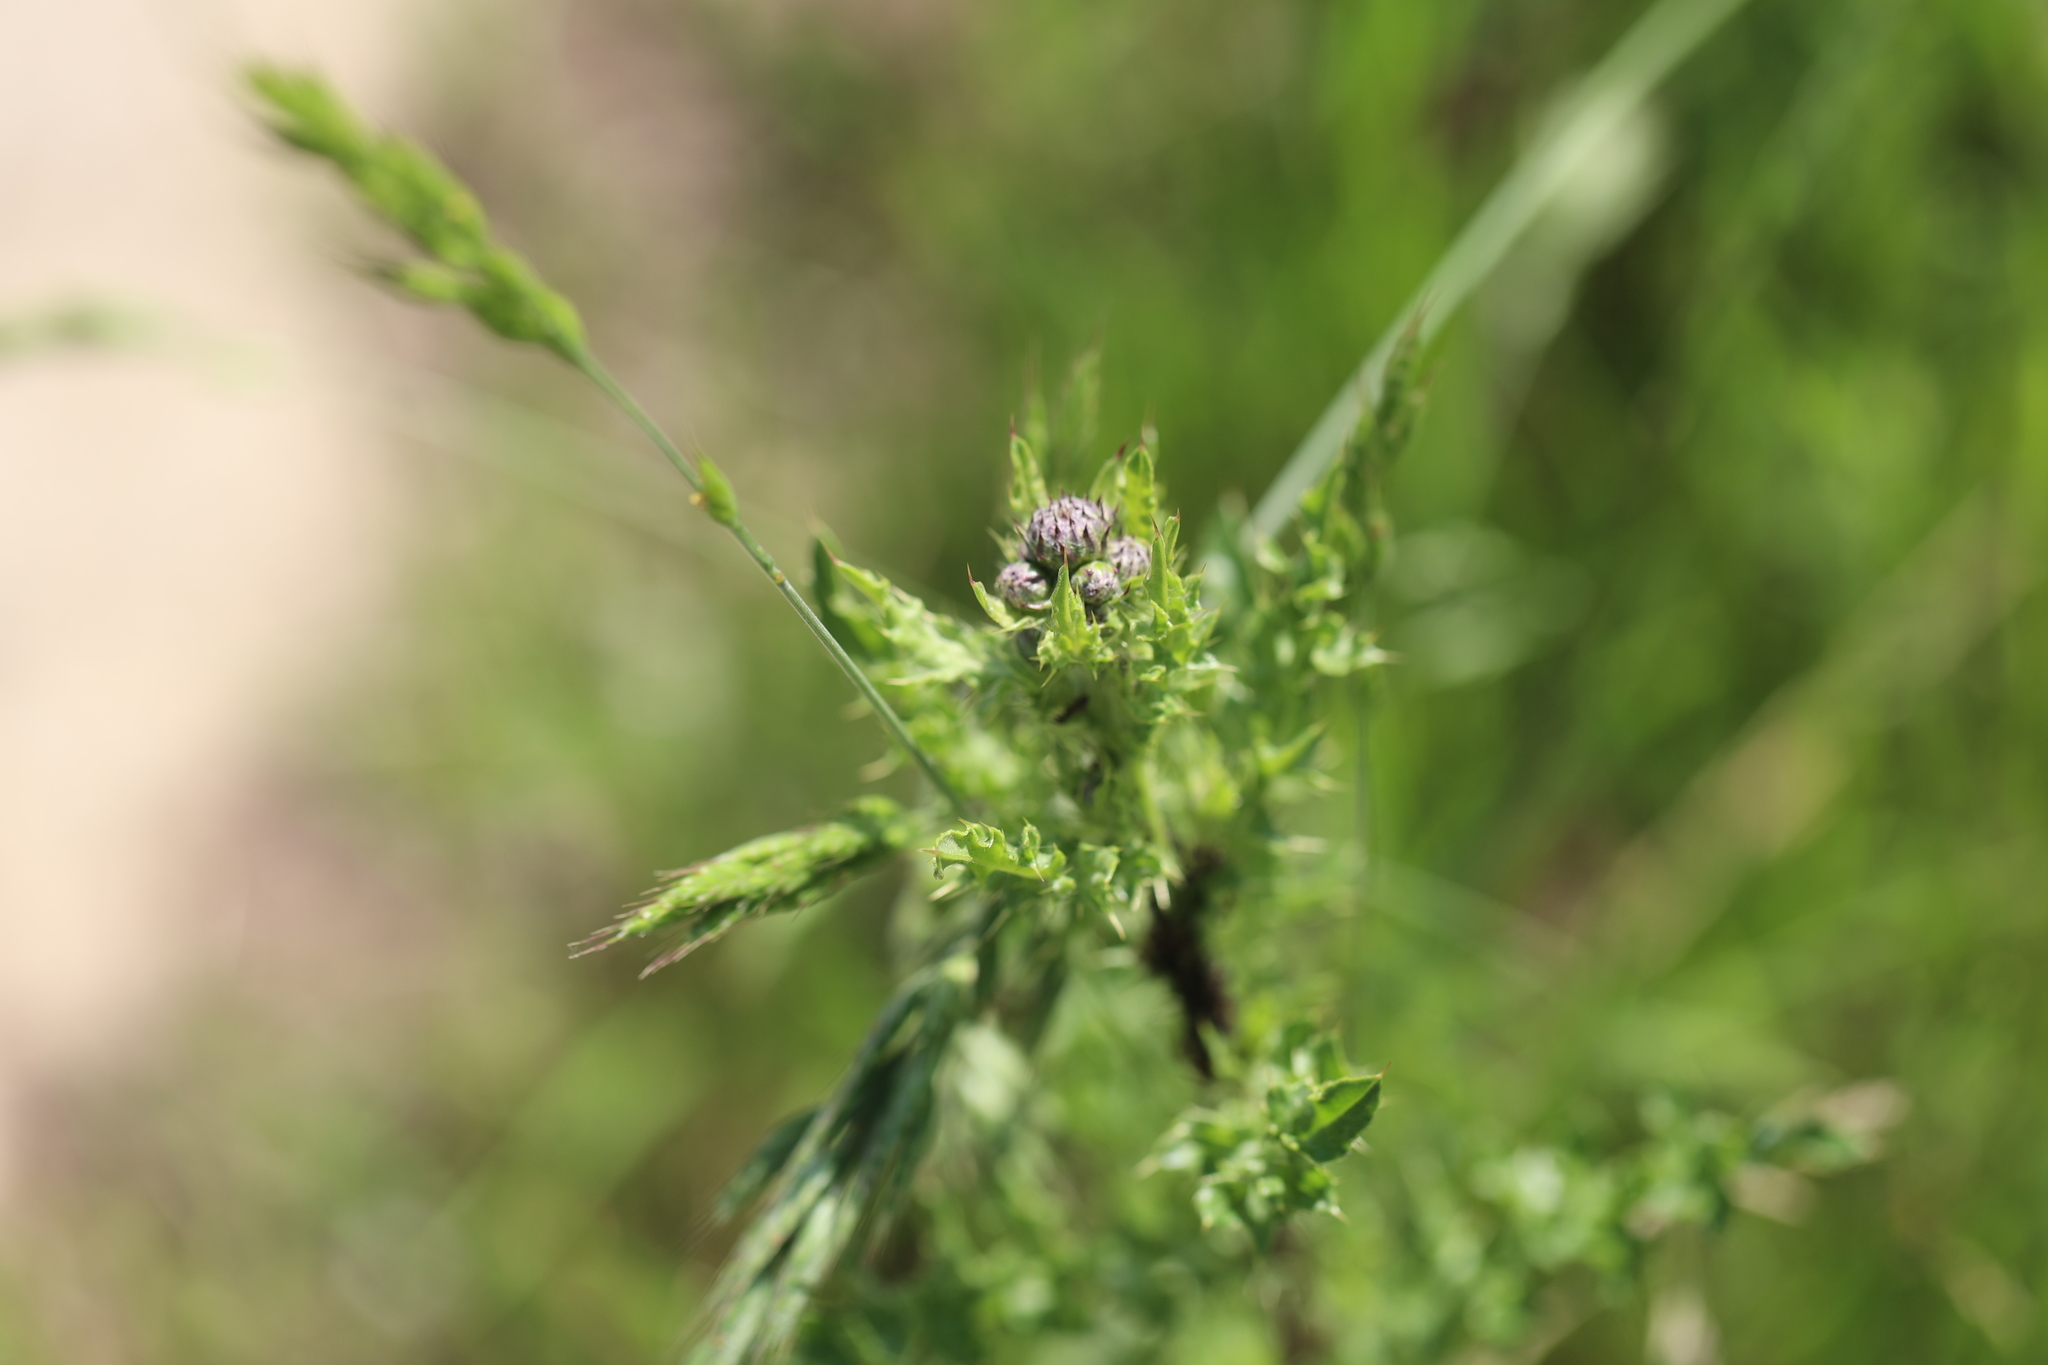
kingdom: Plantae
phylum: Tracheophyta
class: Magnoliopsida
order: Asterales
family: Asteraceae
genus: Cirsium
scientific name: Cirsium arvense
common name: Creeping thistle
